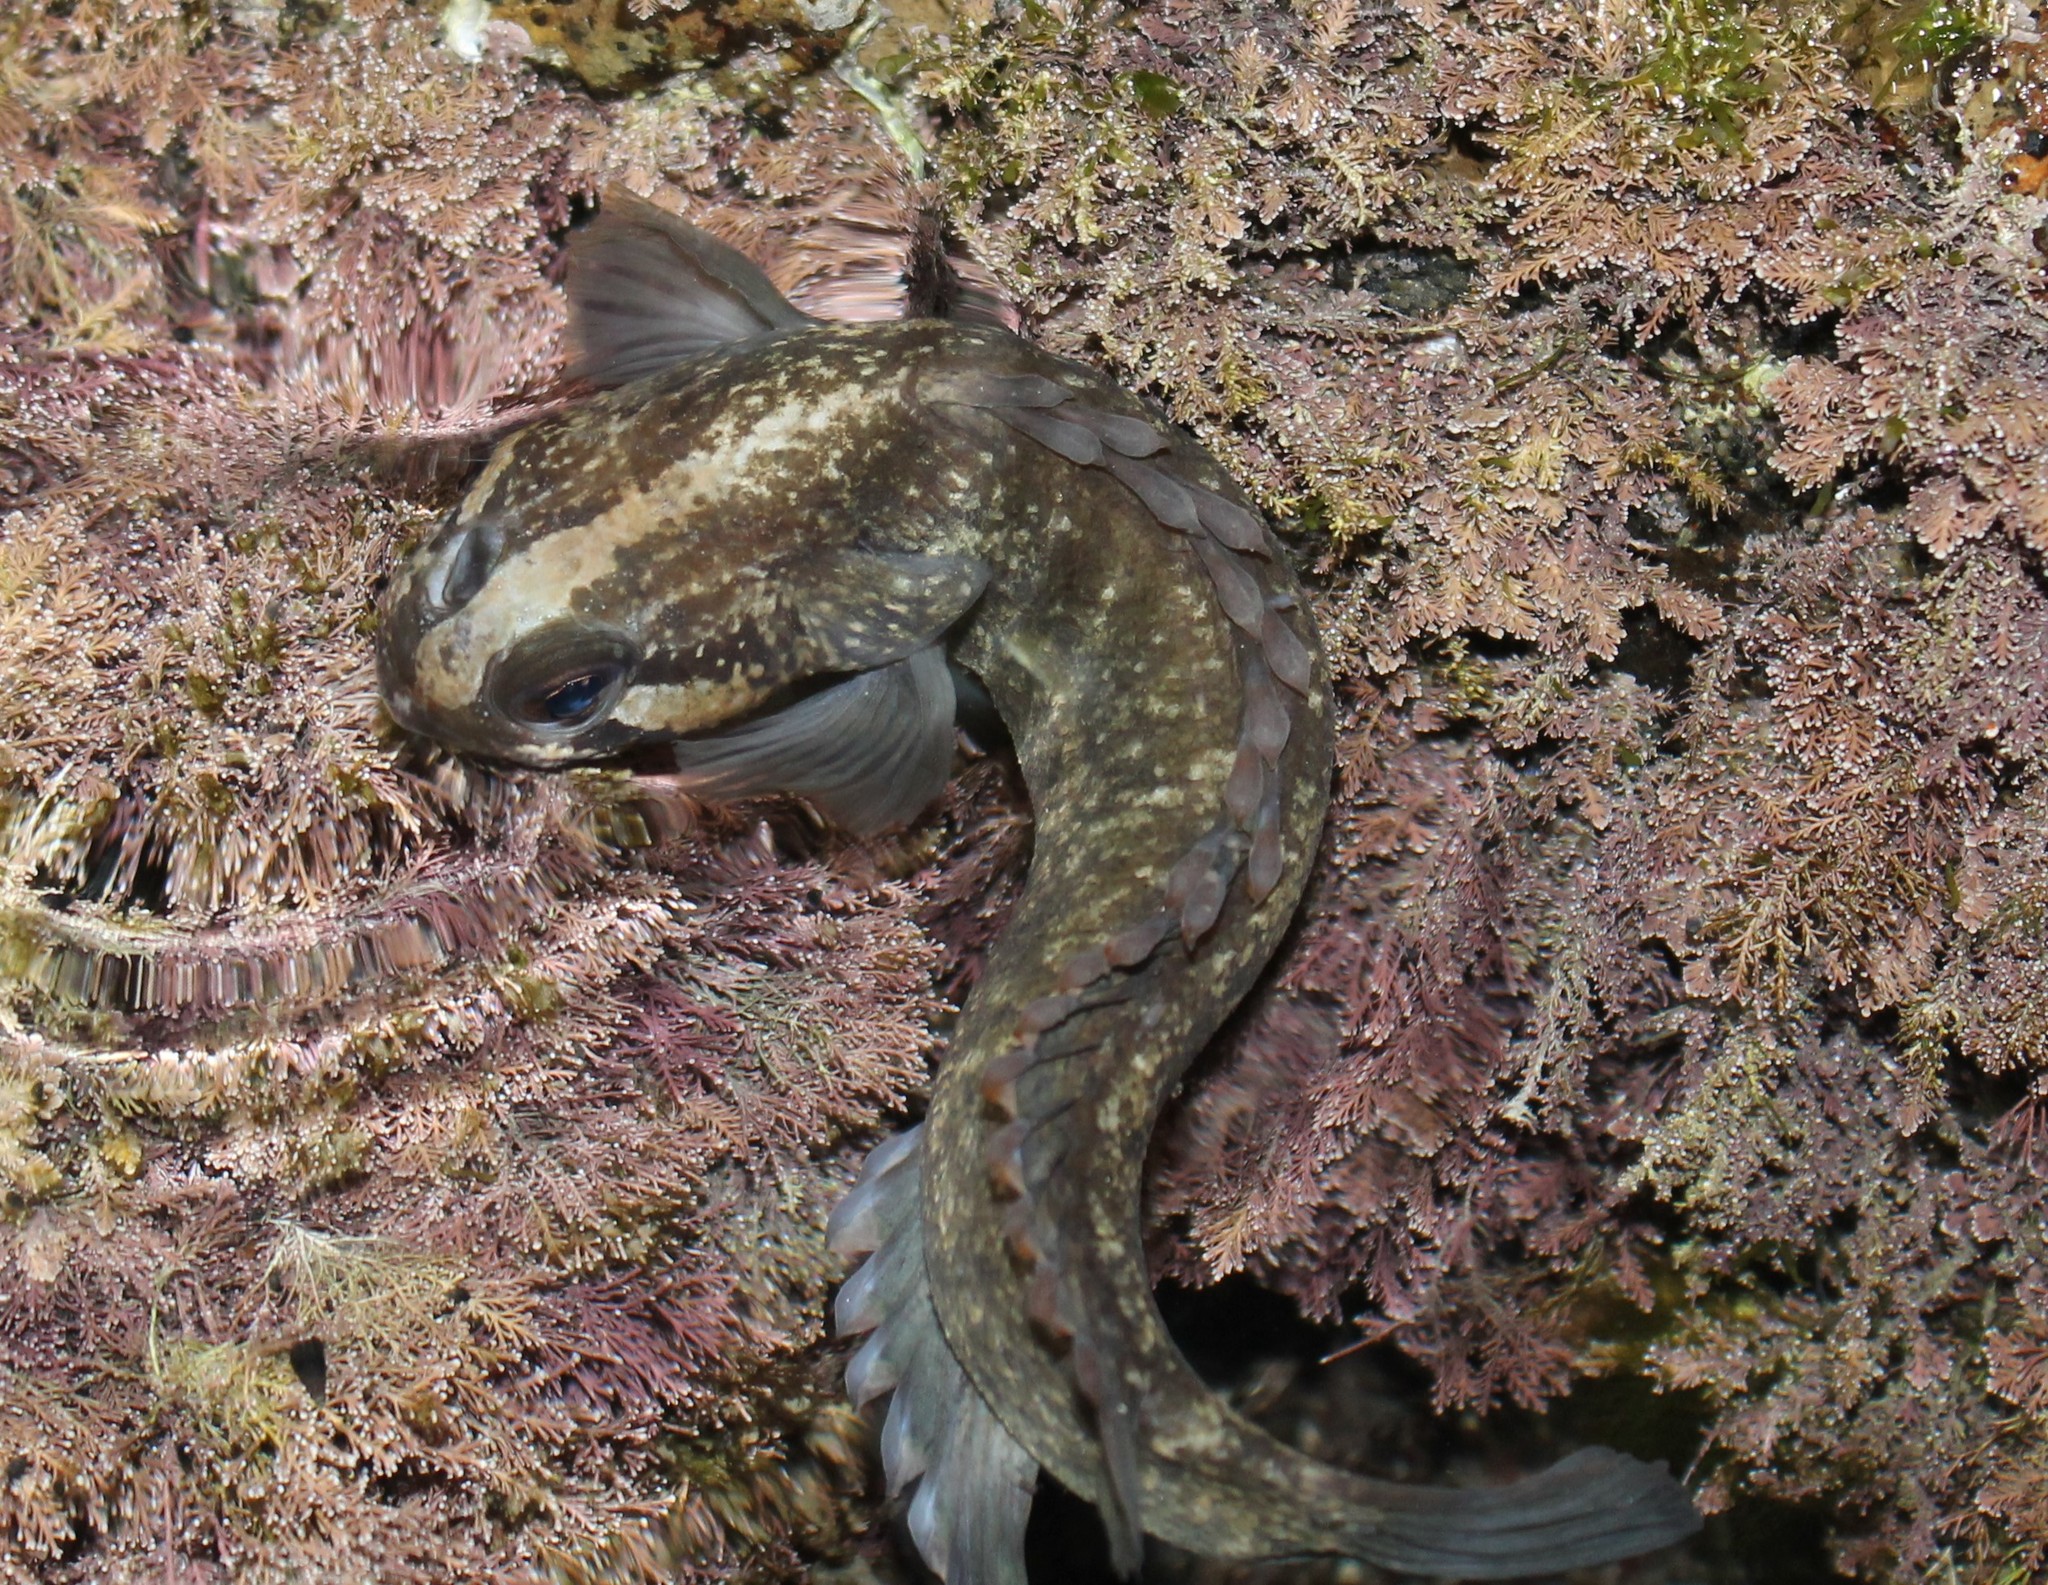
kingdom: Animalia
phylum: Chordata
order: Perciformes
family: Plesiopidae
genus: Acanthoclinus
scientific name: Acanthoclinus fuscus
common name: Olive rockfish
